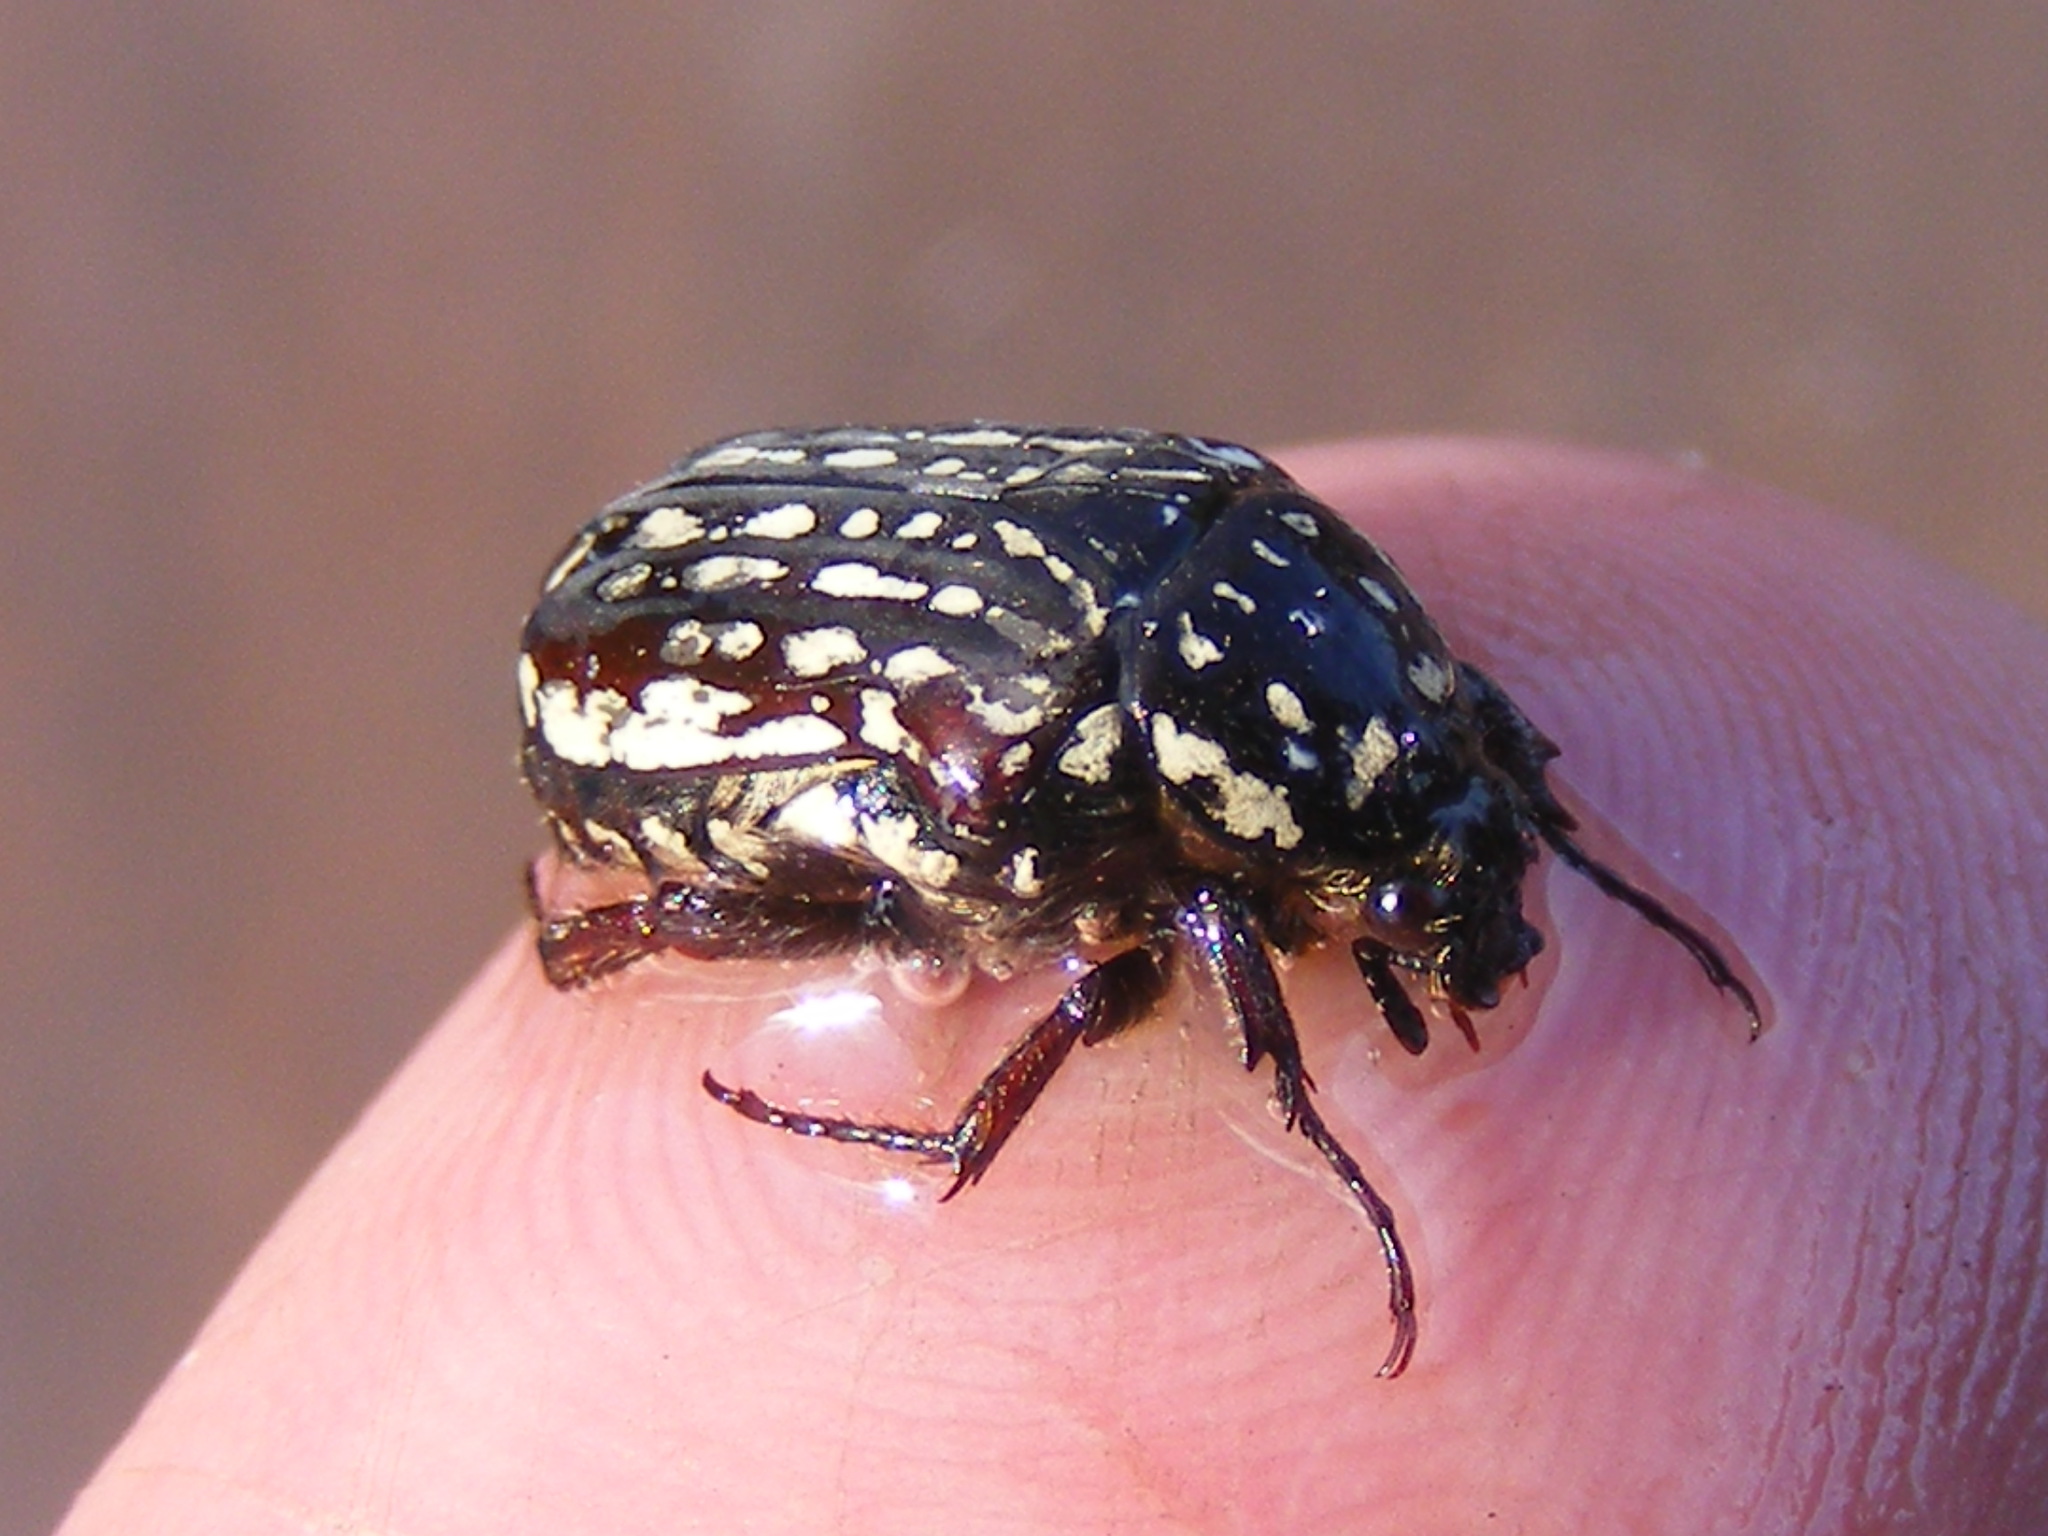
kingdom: Animalia
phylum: Arthropoda
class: Insecta
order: Coleoptera
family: Scarabaeidae
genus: Elaphinis
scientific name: Elaphinis delagoensis
